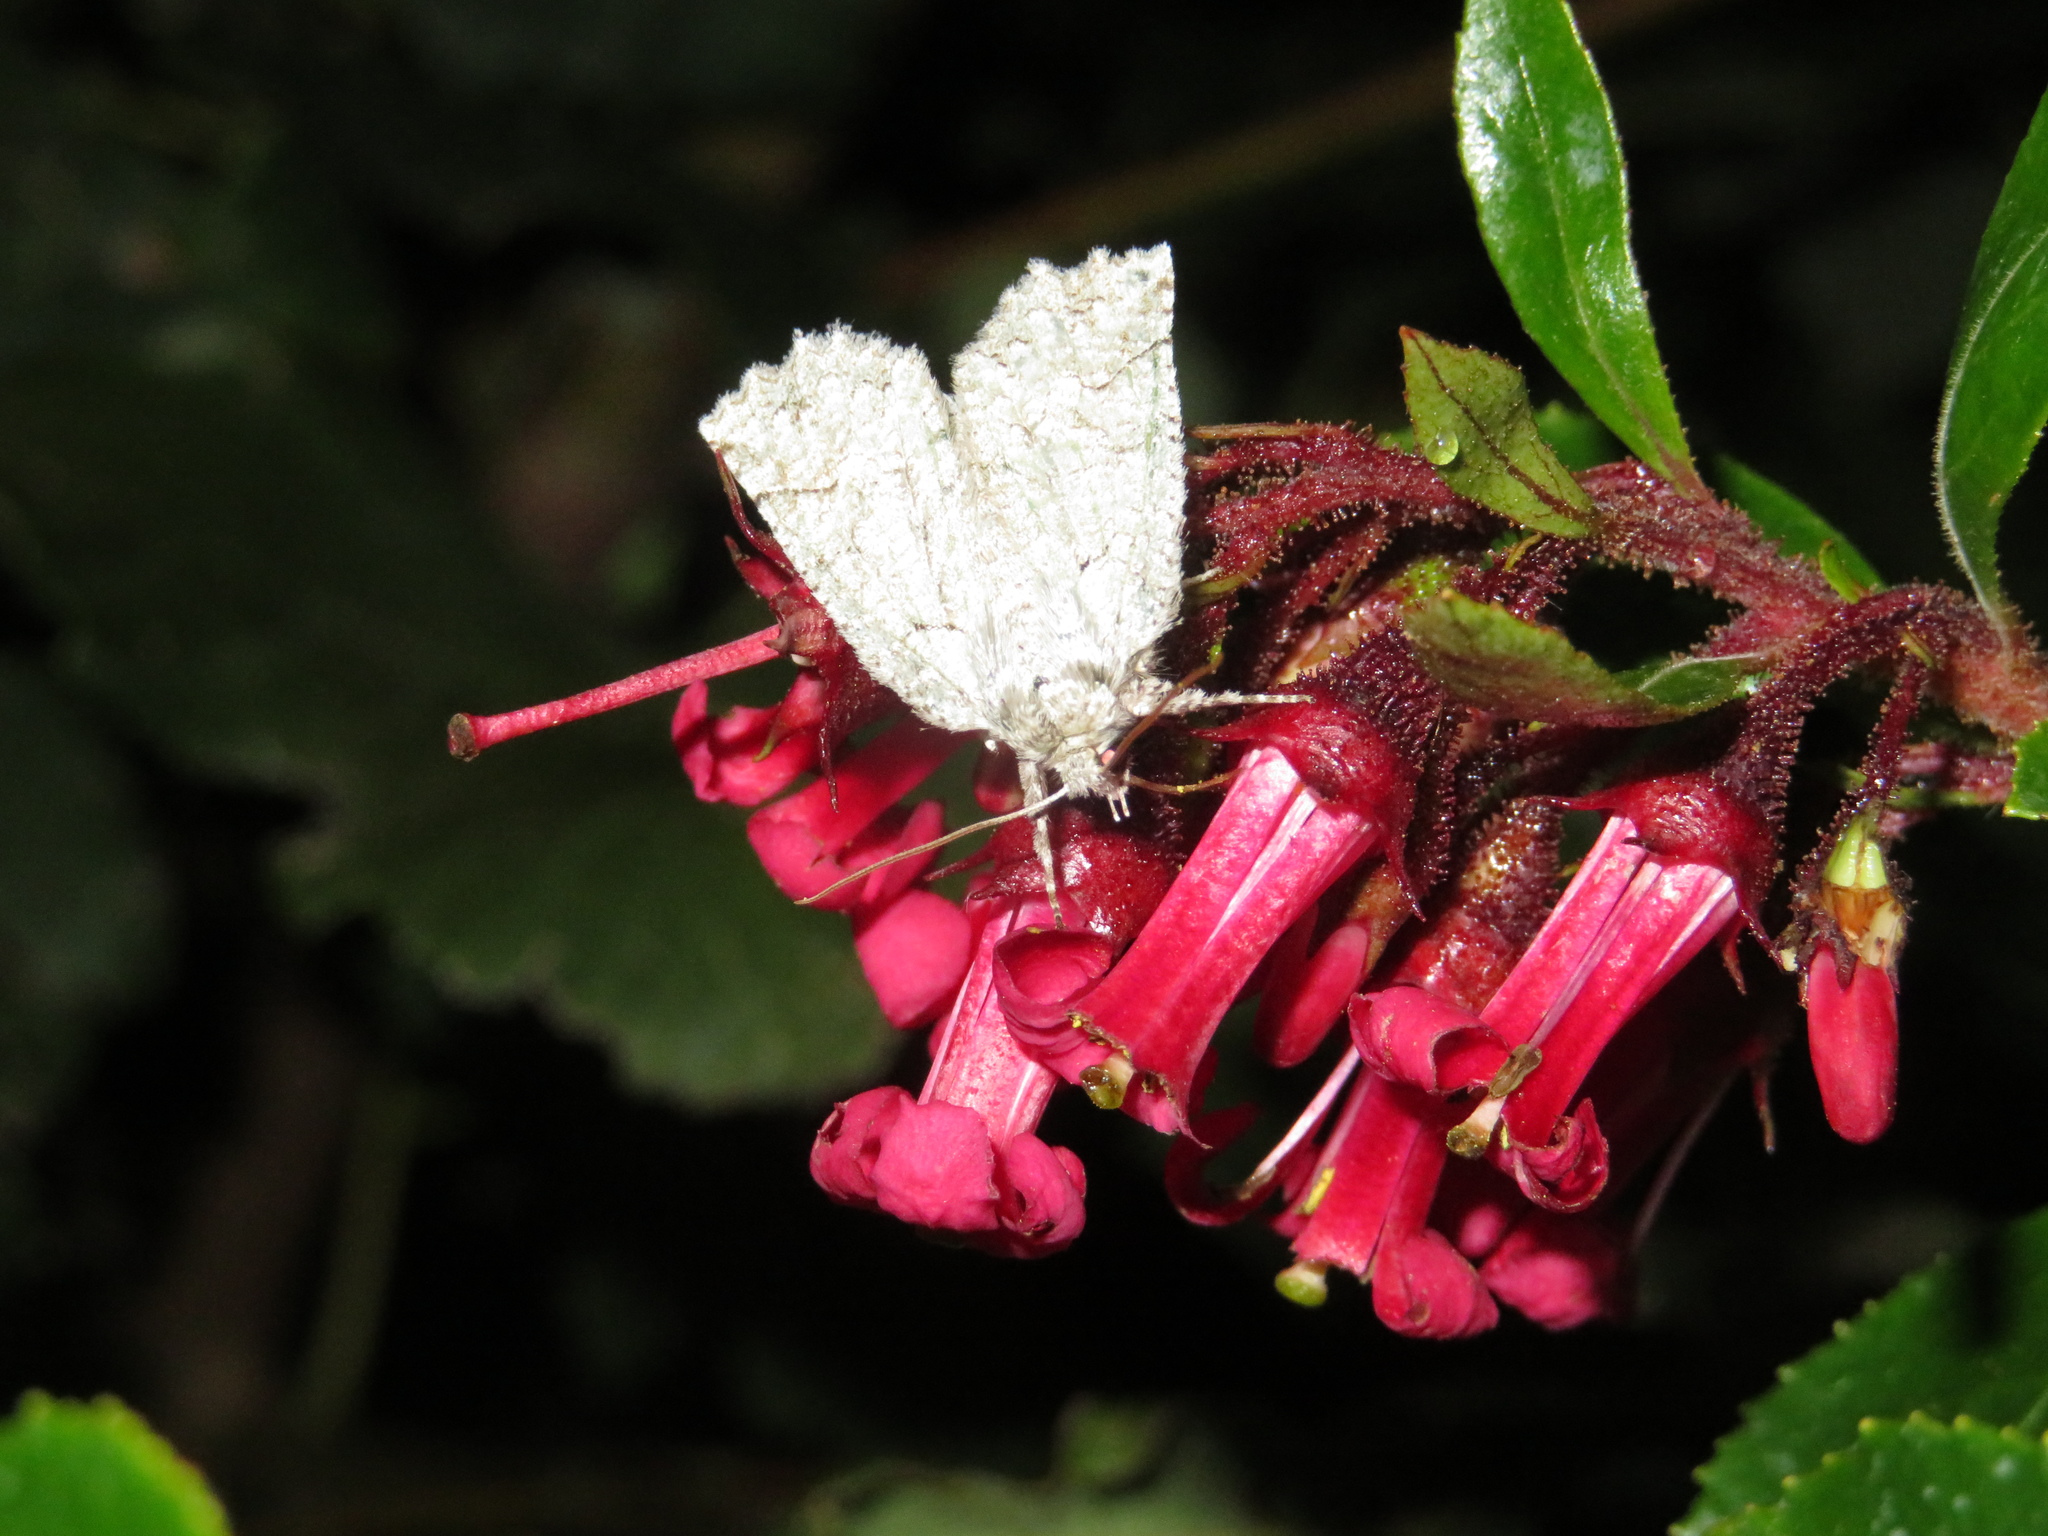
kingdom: Animalia
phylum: Arthropoda
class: Insecta
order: Lepidoptera
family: Geometridae
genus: Declana
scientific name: Declana floccosa
